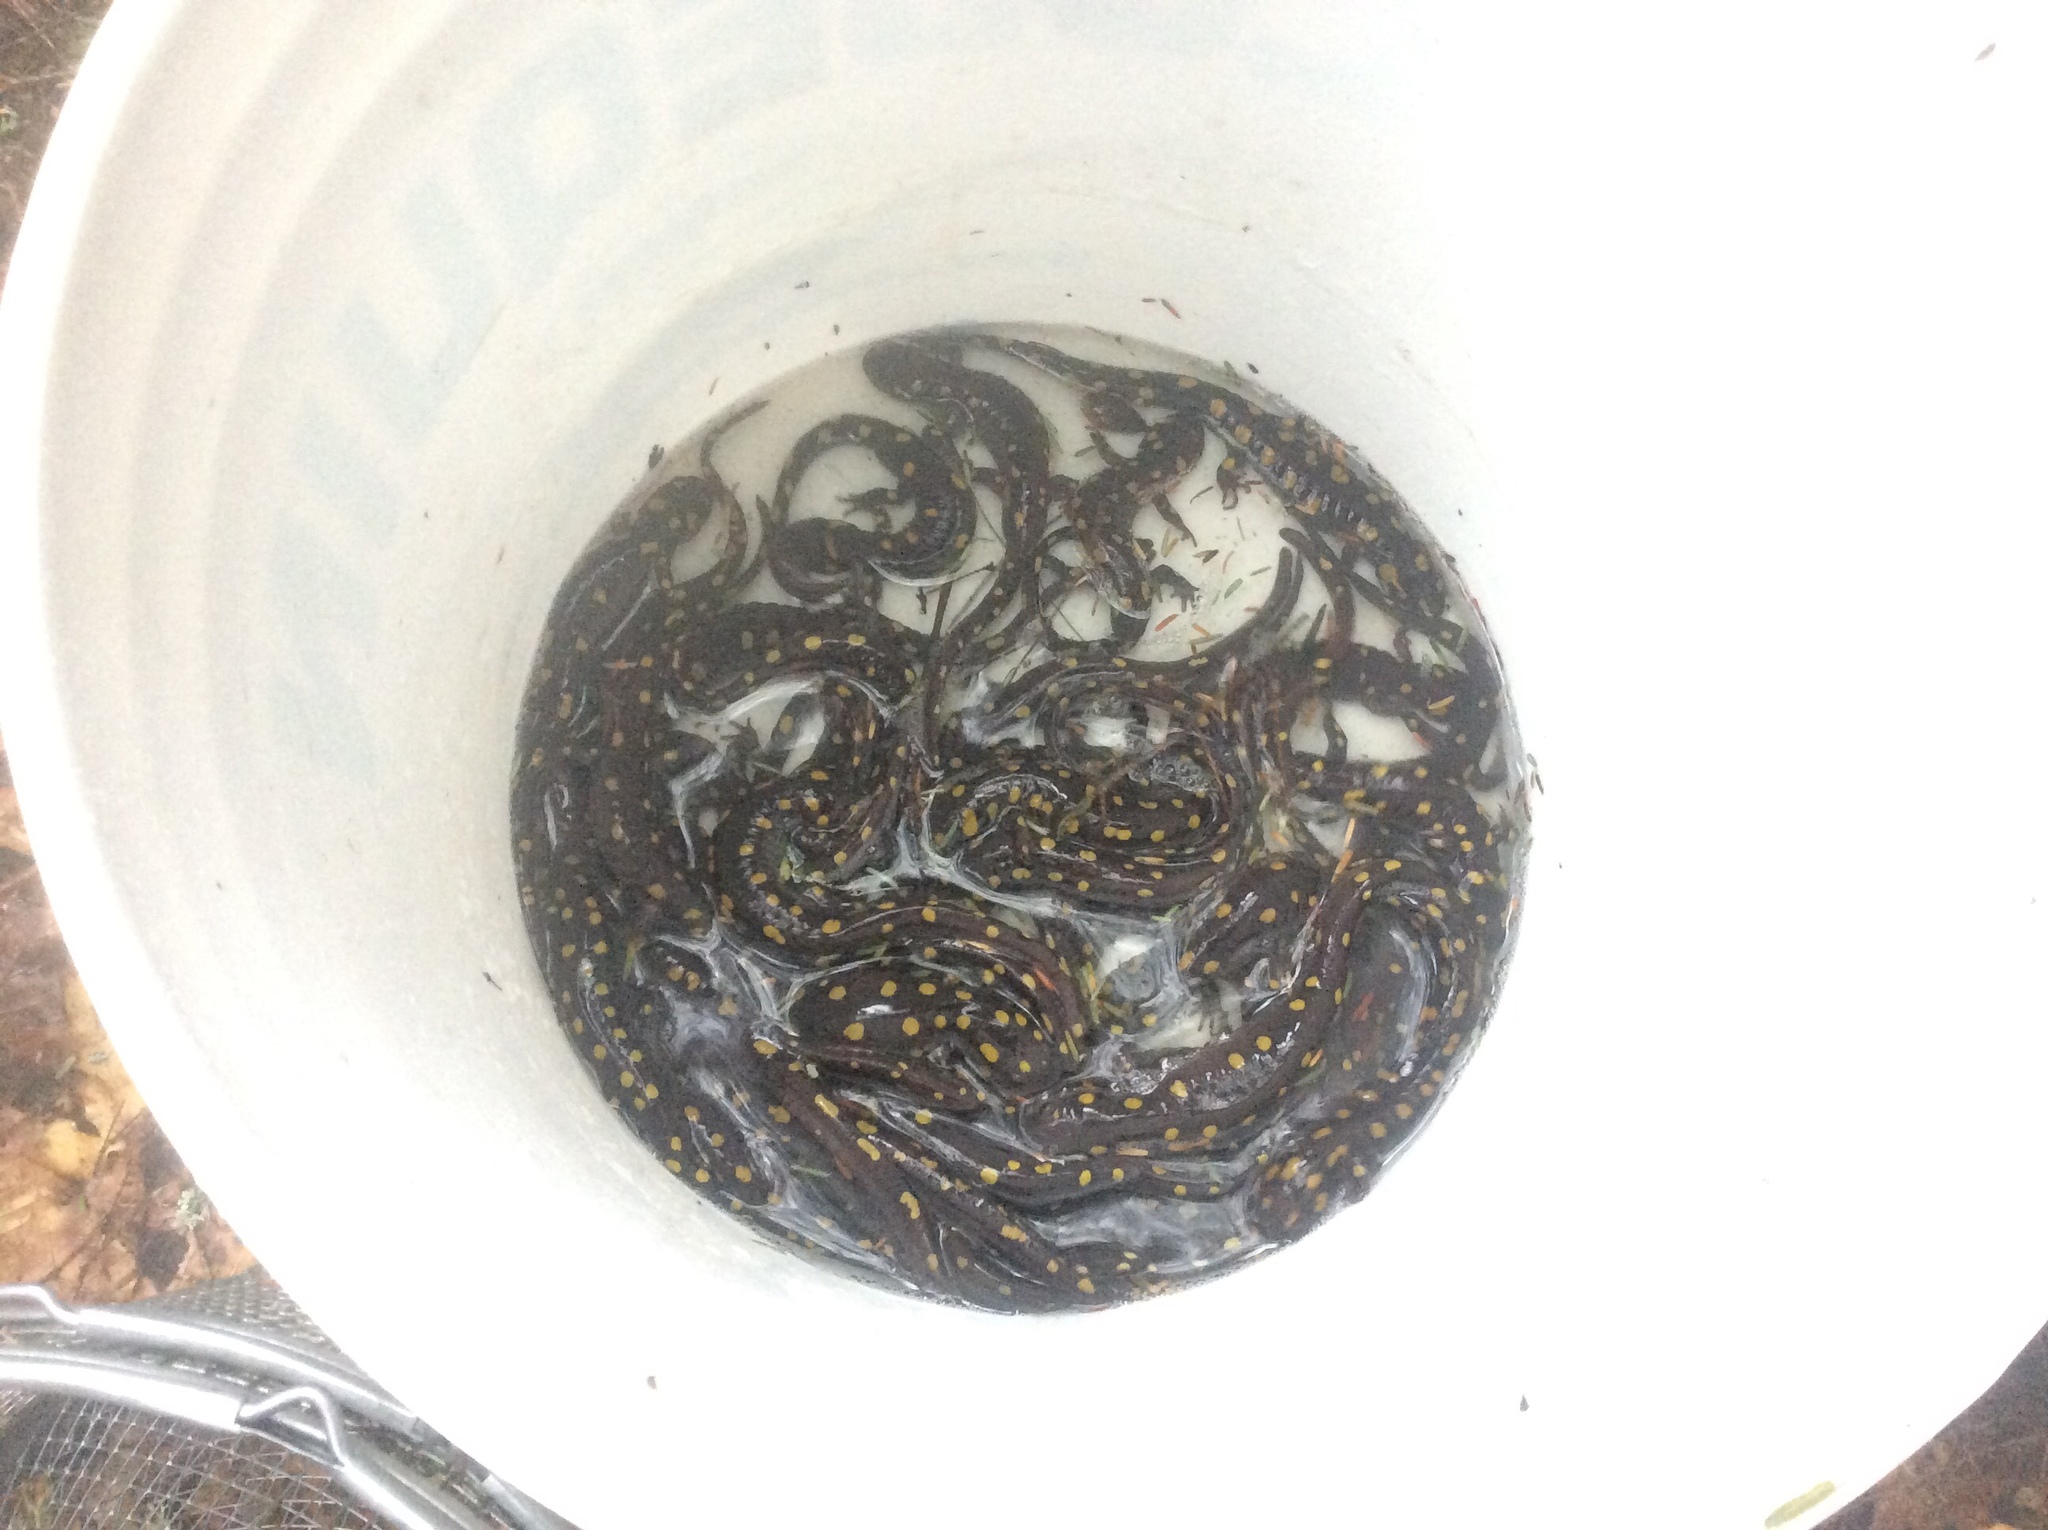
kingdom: Animalia
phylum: Chordata
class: Amphibia
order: Caudata
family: Ambystomatidae
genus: Ambystoma
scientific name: Ambystoma maculatum
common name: Spotted salamander
